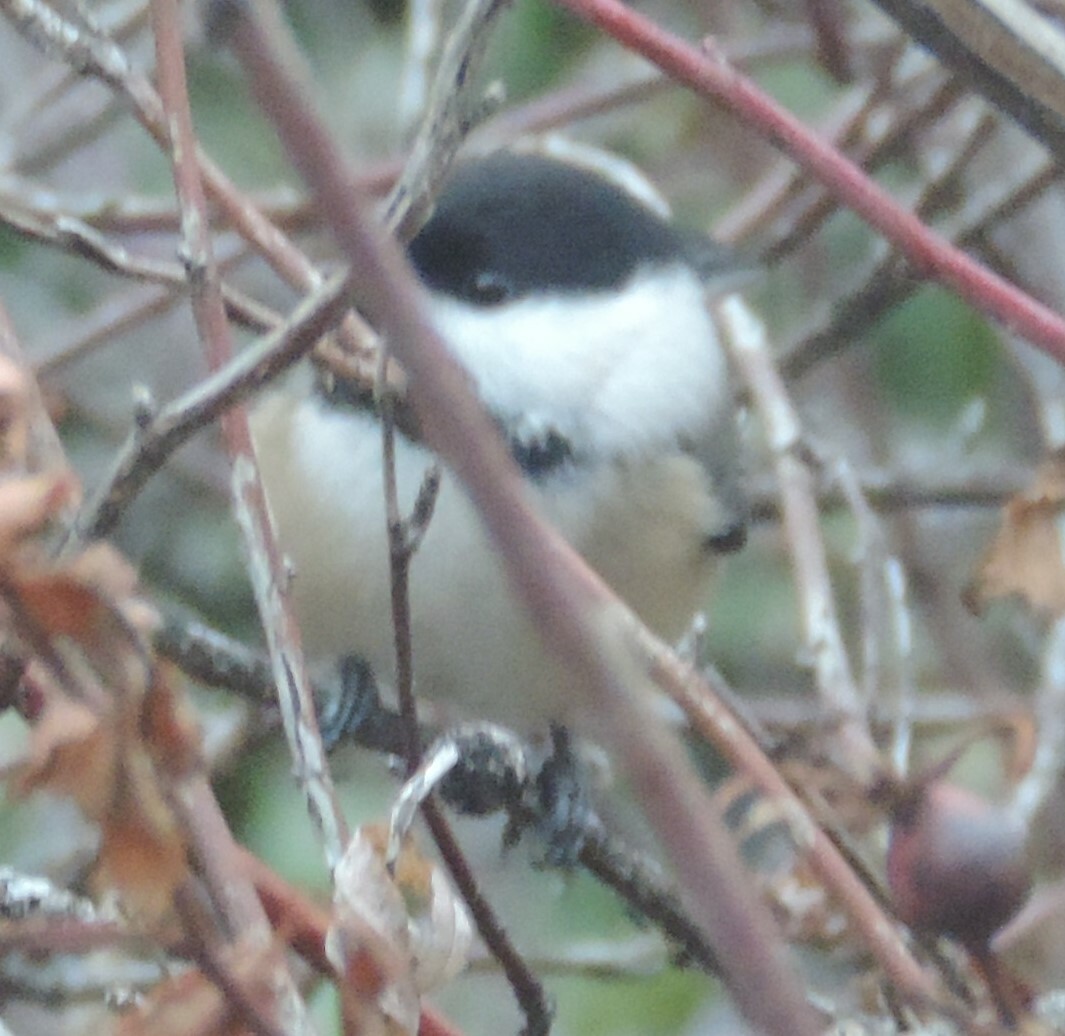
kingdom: Animalia
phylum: Chordata
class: Aves
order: Passeriformes
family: Paridae
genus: Poecile
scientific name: Poecile atricapillus
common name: Black-capped chickadee
